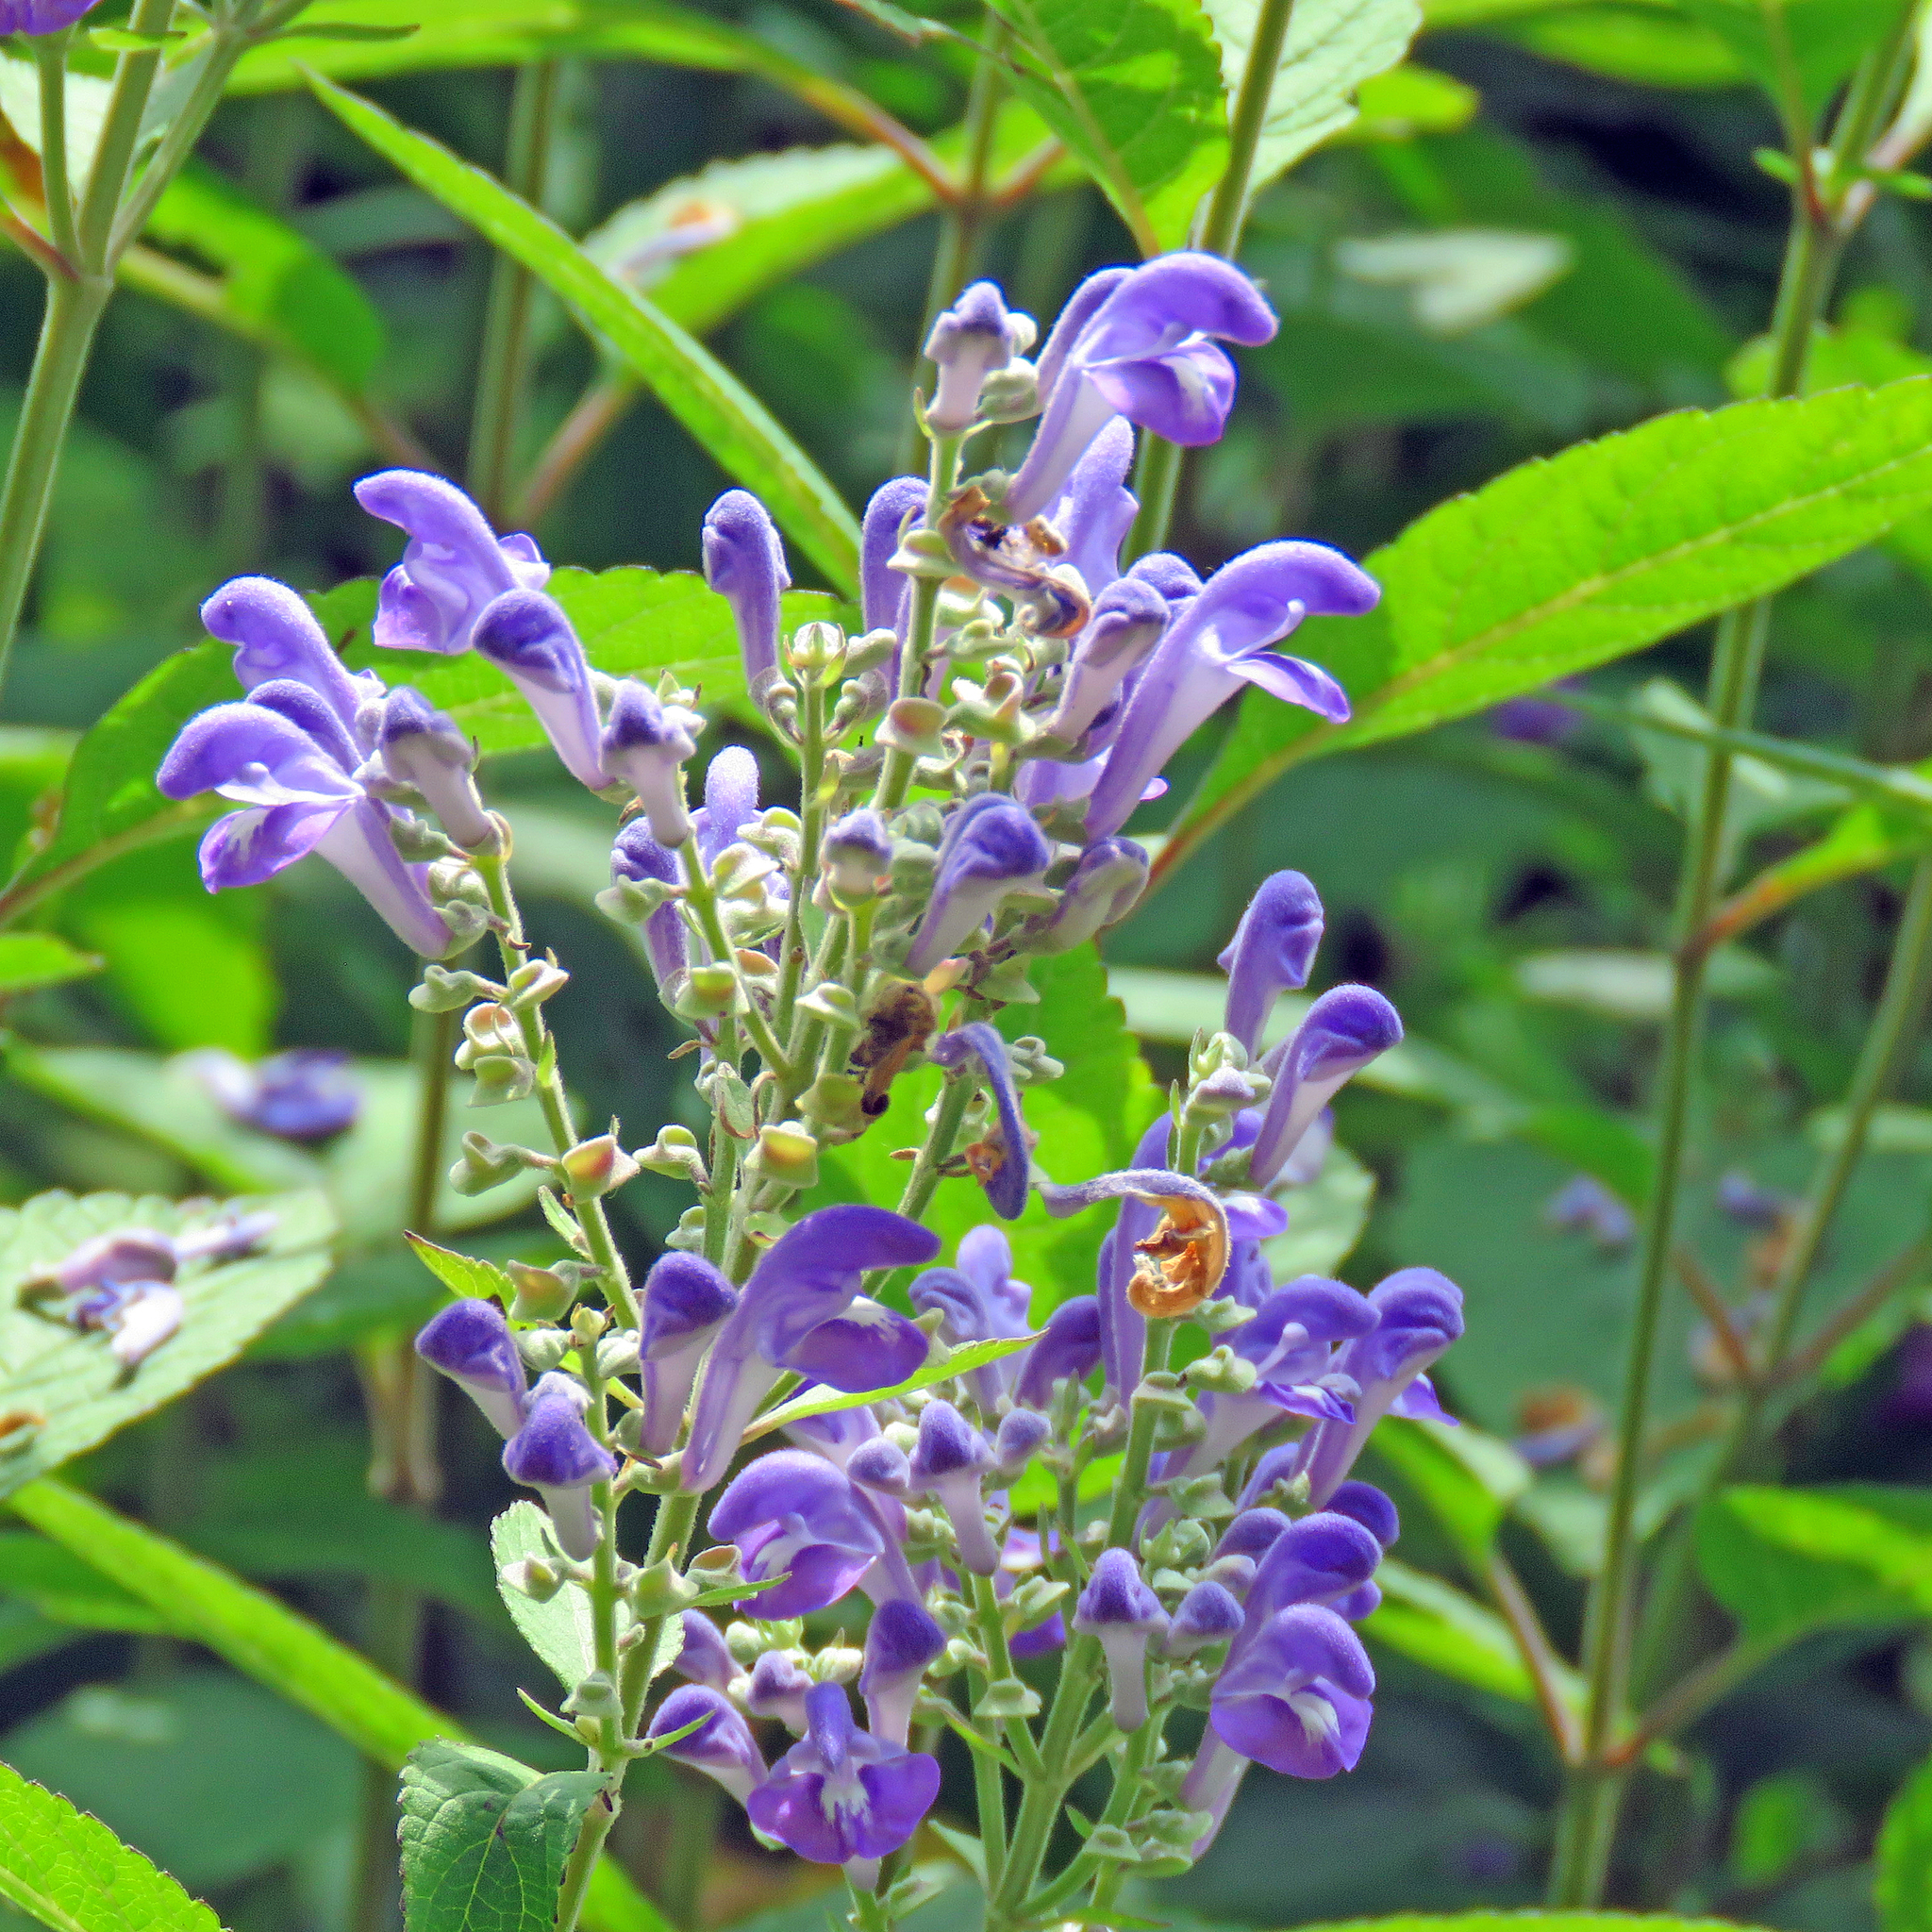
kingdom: Plantae
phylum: Tracheophyta
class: Magnoliopsida
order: Lamiales
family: Lamiaceae
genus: Scutellaria
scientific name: Scutellaria incana
